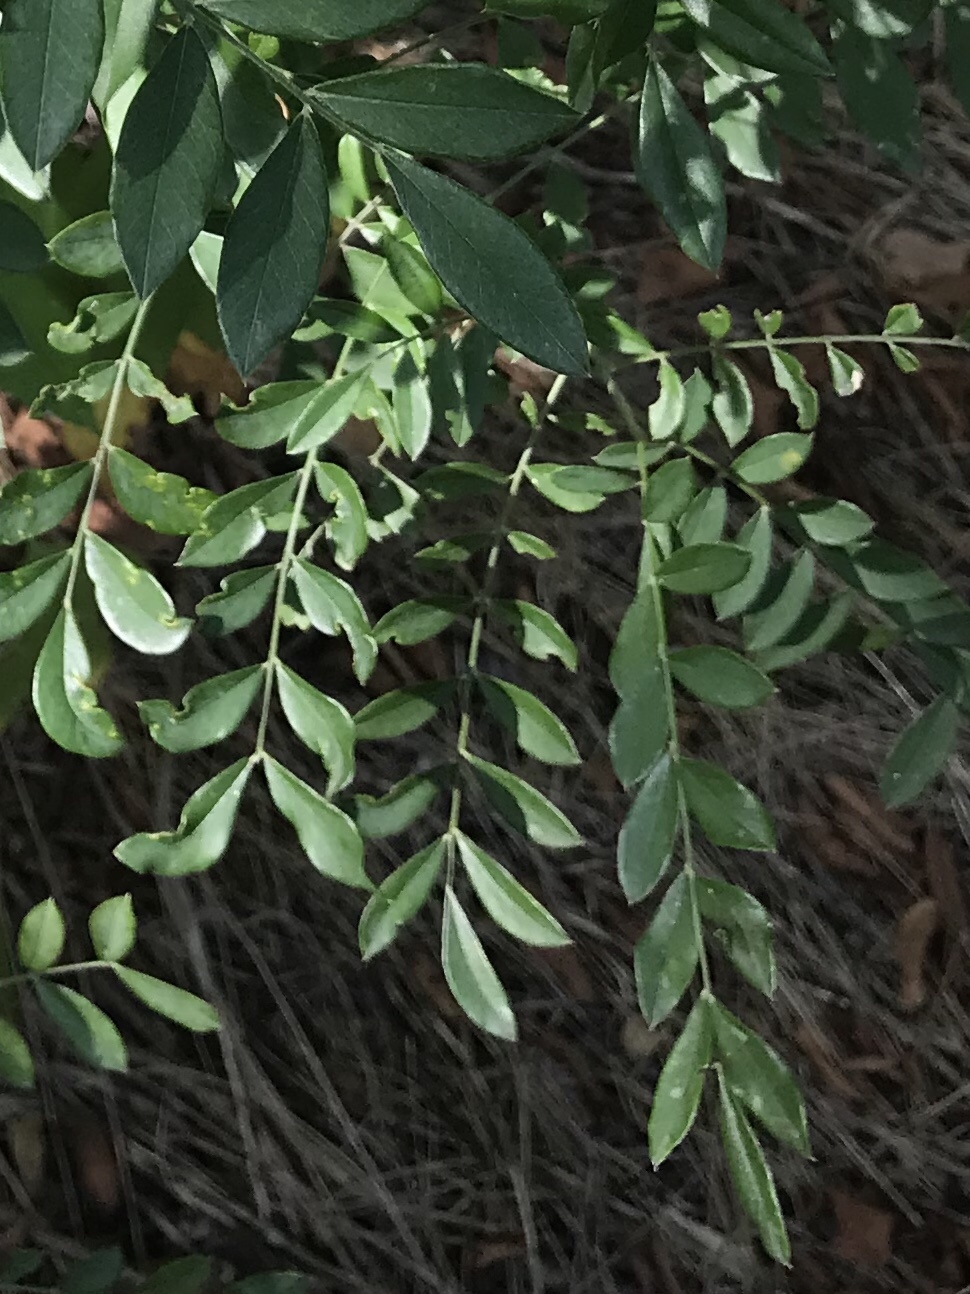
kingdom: Plantae
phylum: Tracheophyta
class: Magnoliopsida
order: Fabales
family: Fabaceae
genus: Styphnolobium
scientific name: Styphnolobium affine
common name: Texas sophora
